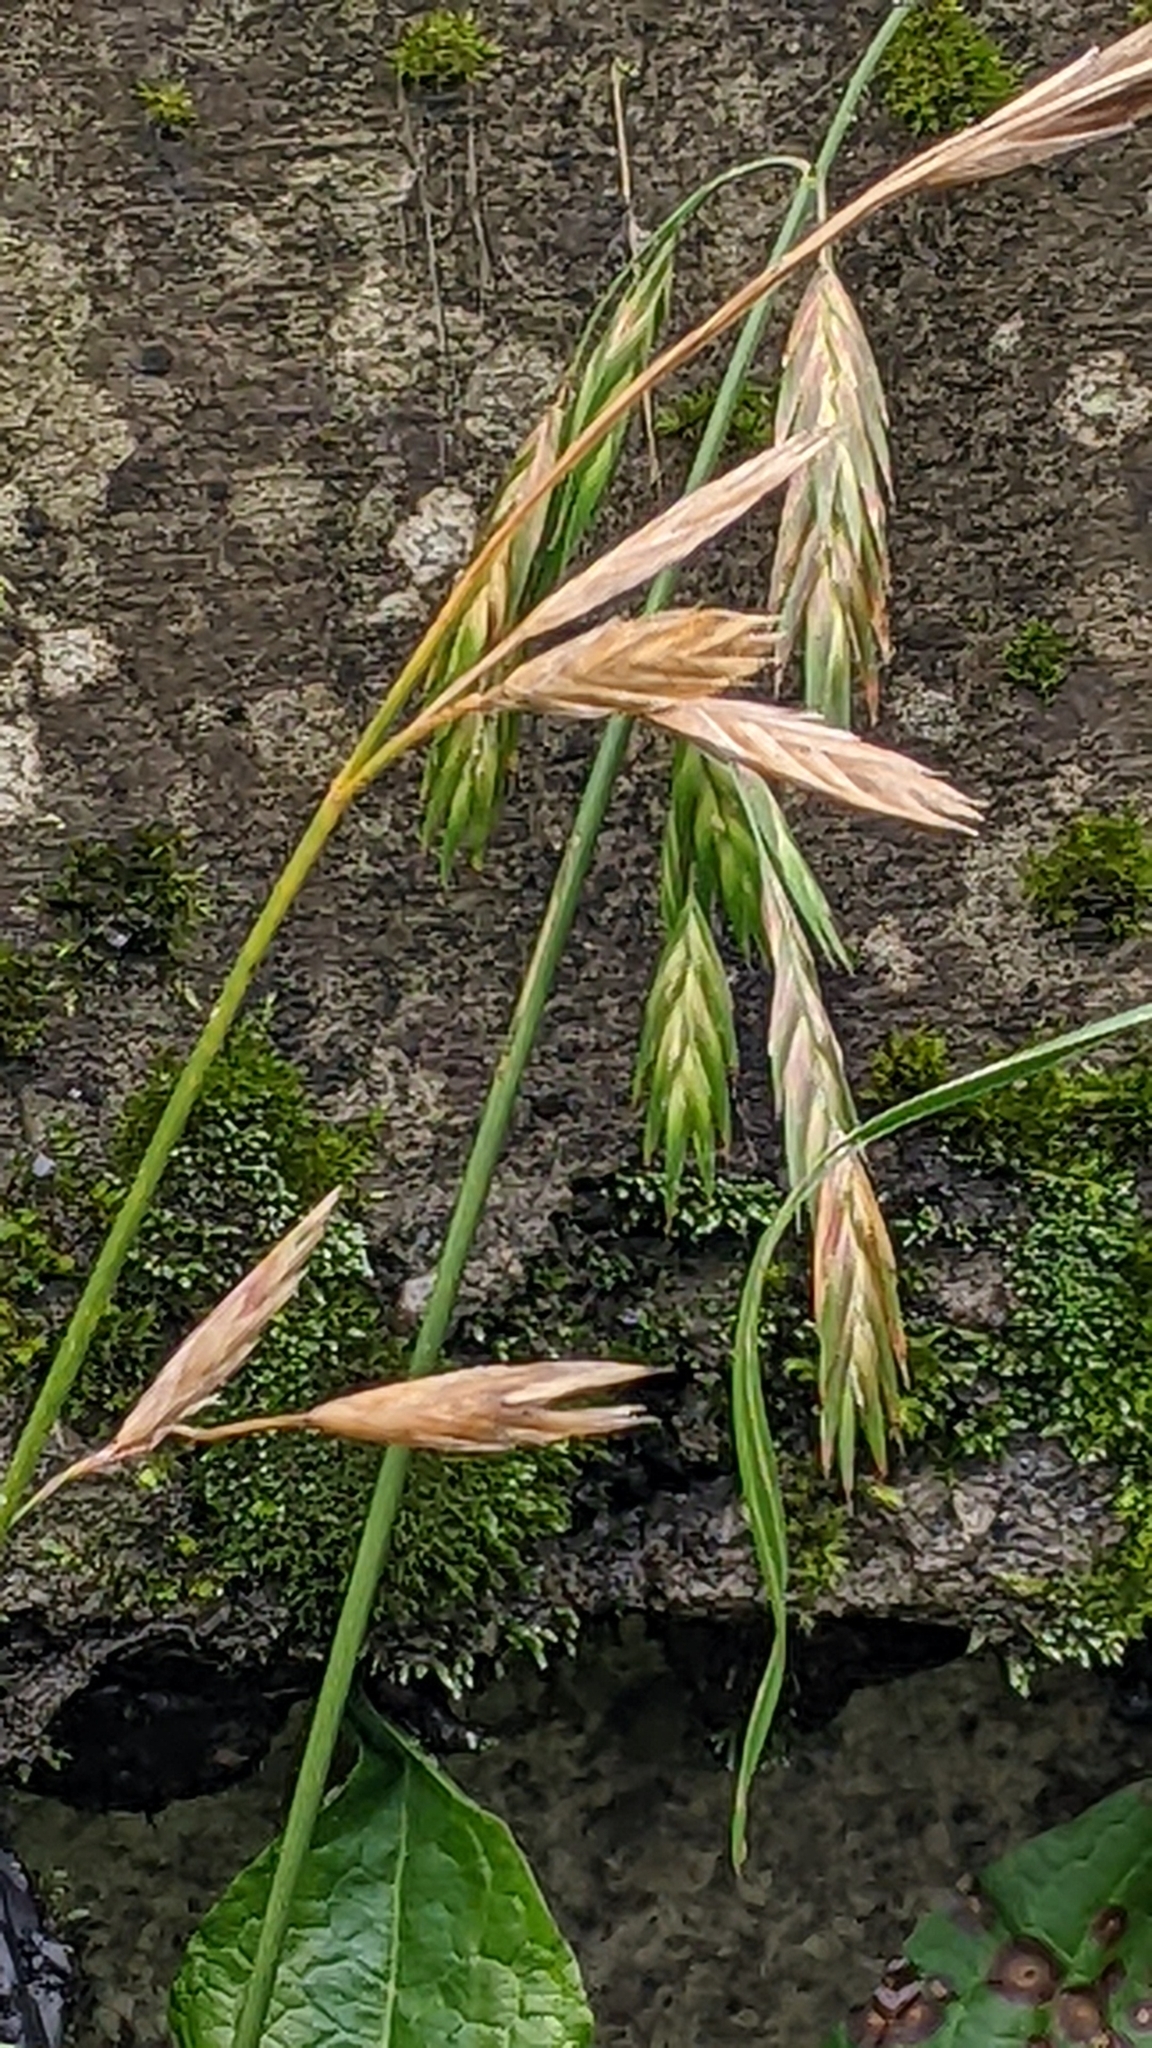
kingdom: Plantae
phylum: Tracheophyta
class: Liliopsida
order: Poales
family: Poaceae
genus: Bromus
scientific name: Bromus catharticus
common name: Rescuegrass
